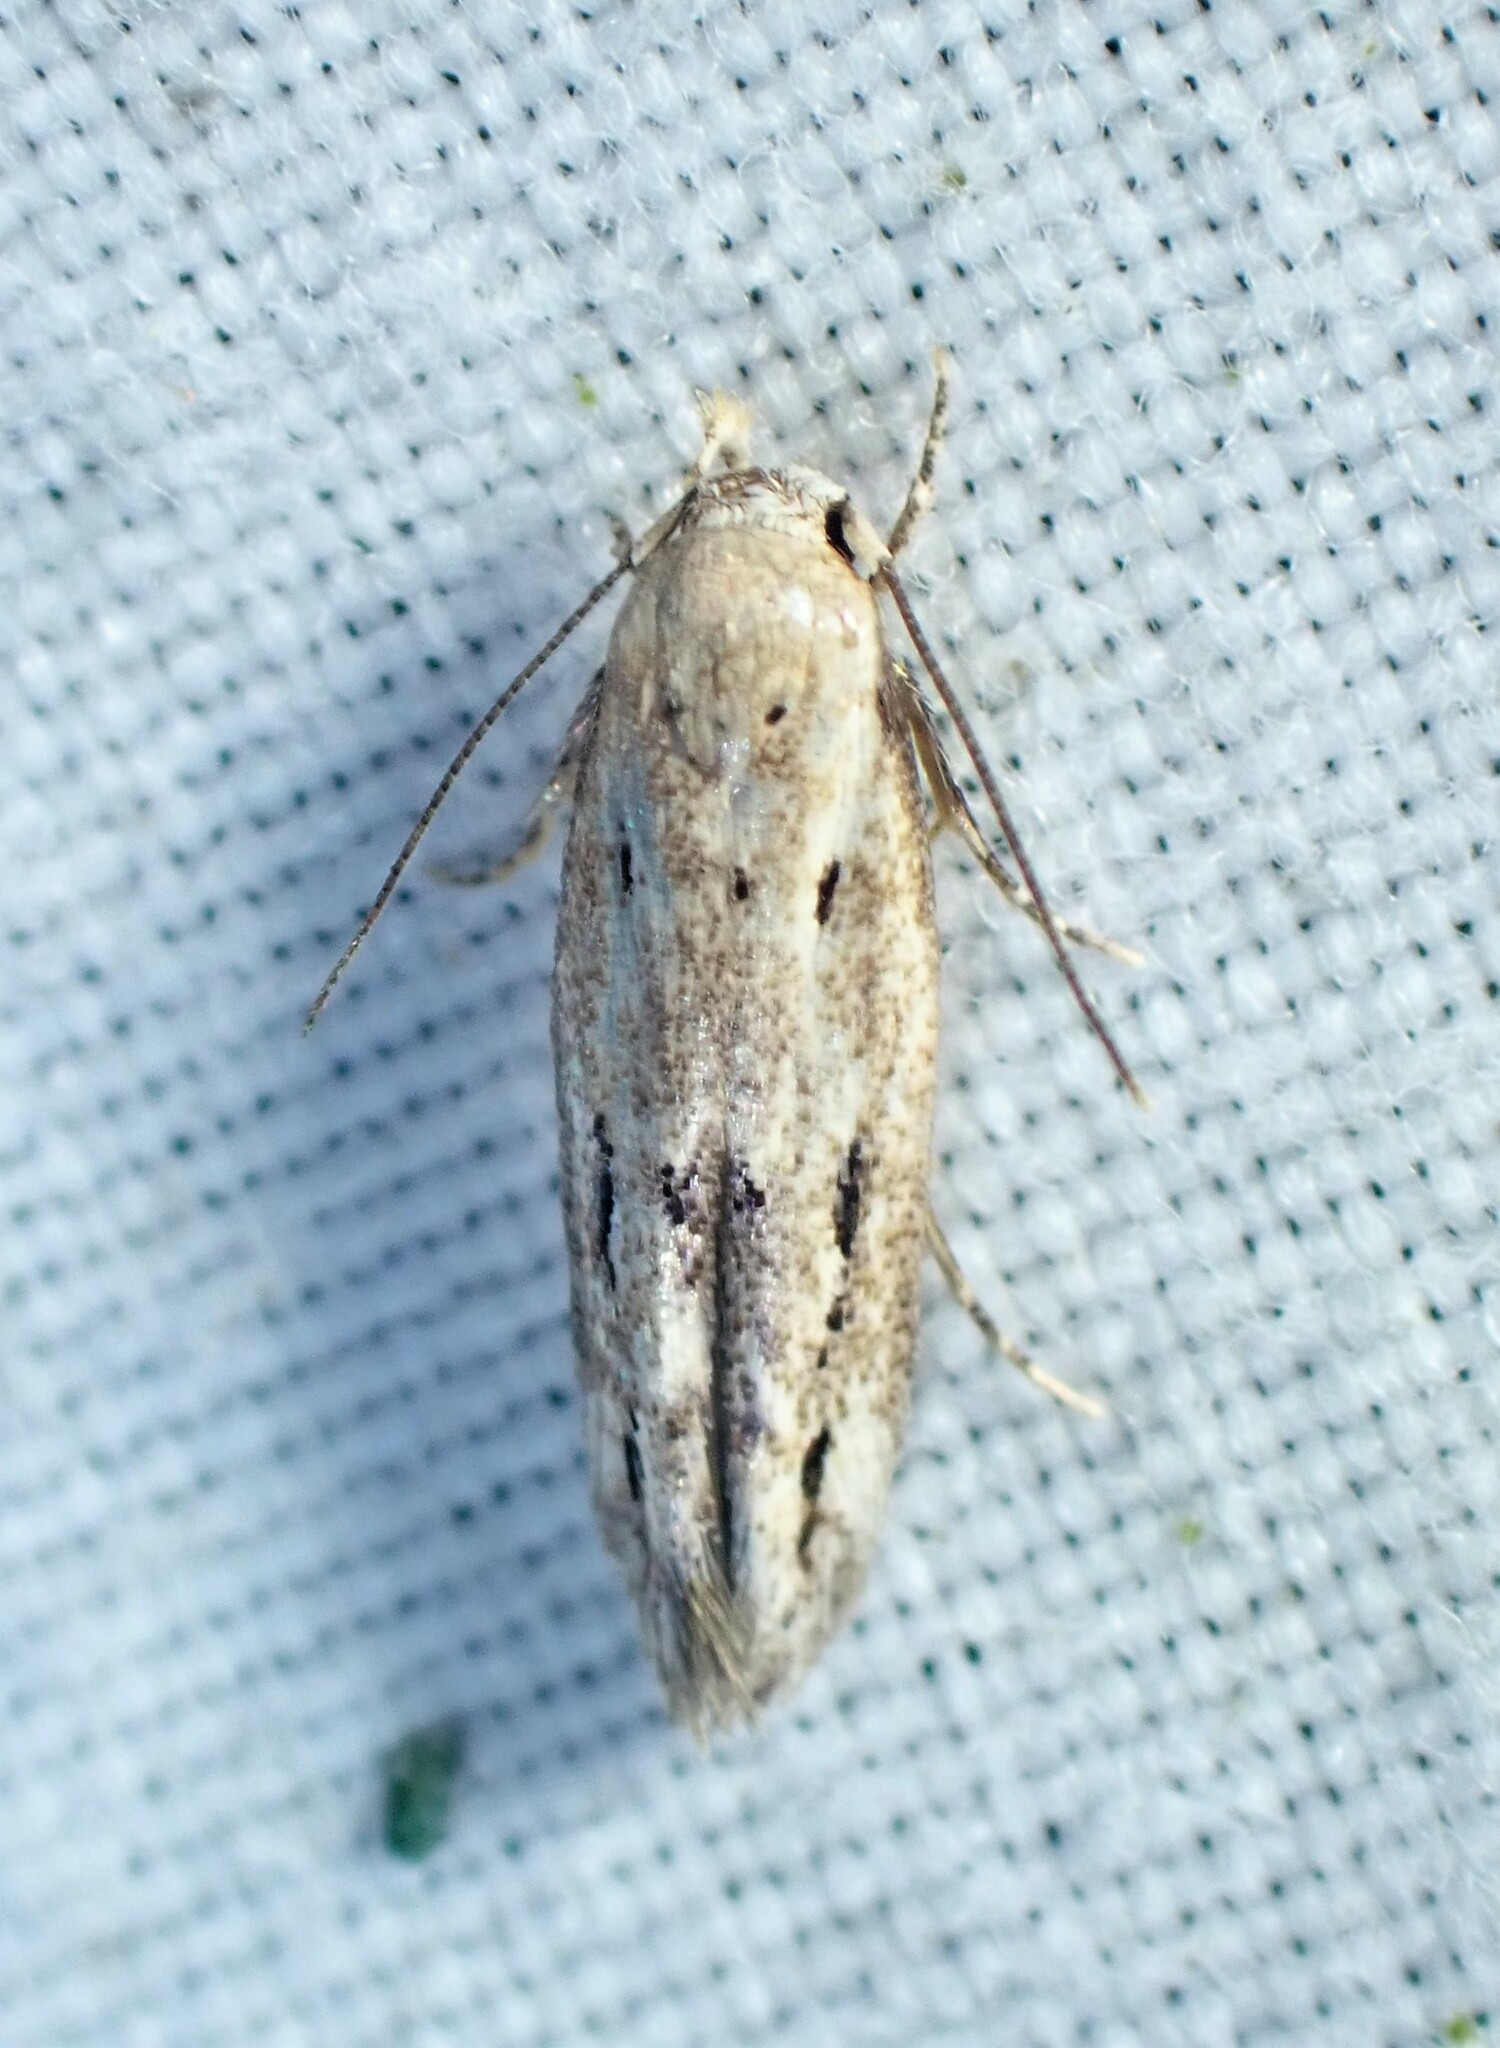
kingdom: Animalia
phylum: Arthropoda
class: Insecta
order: Lepidoptera
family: Momphidae
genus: Mompha
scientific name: Mompha brevivittella
